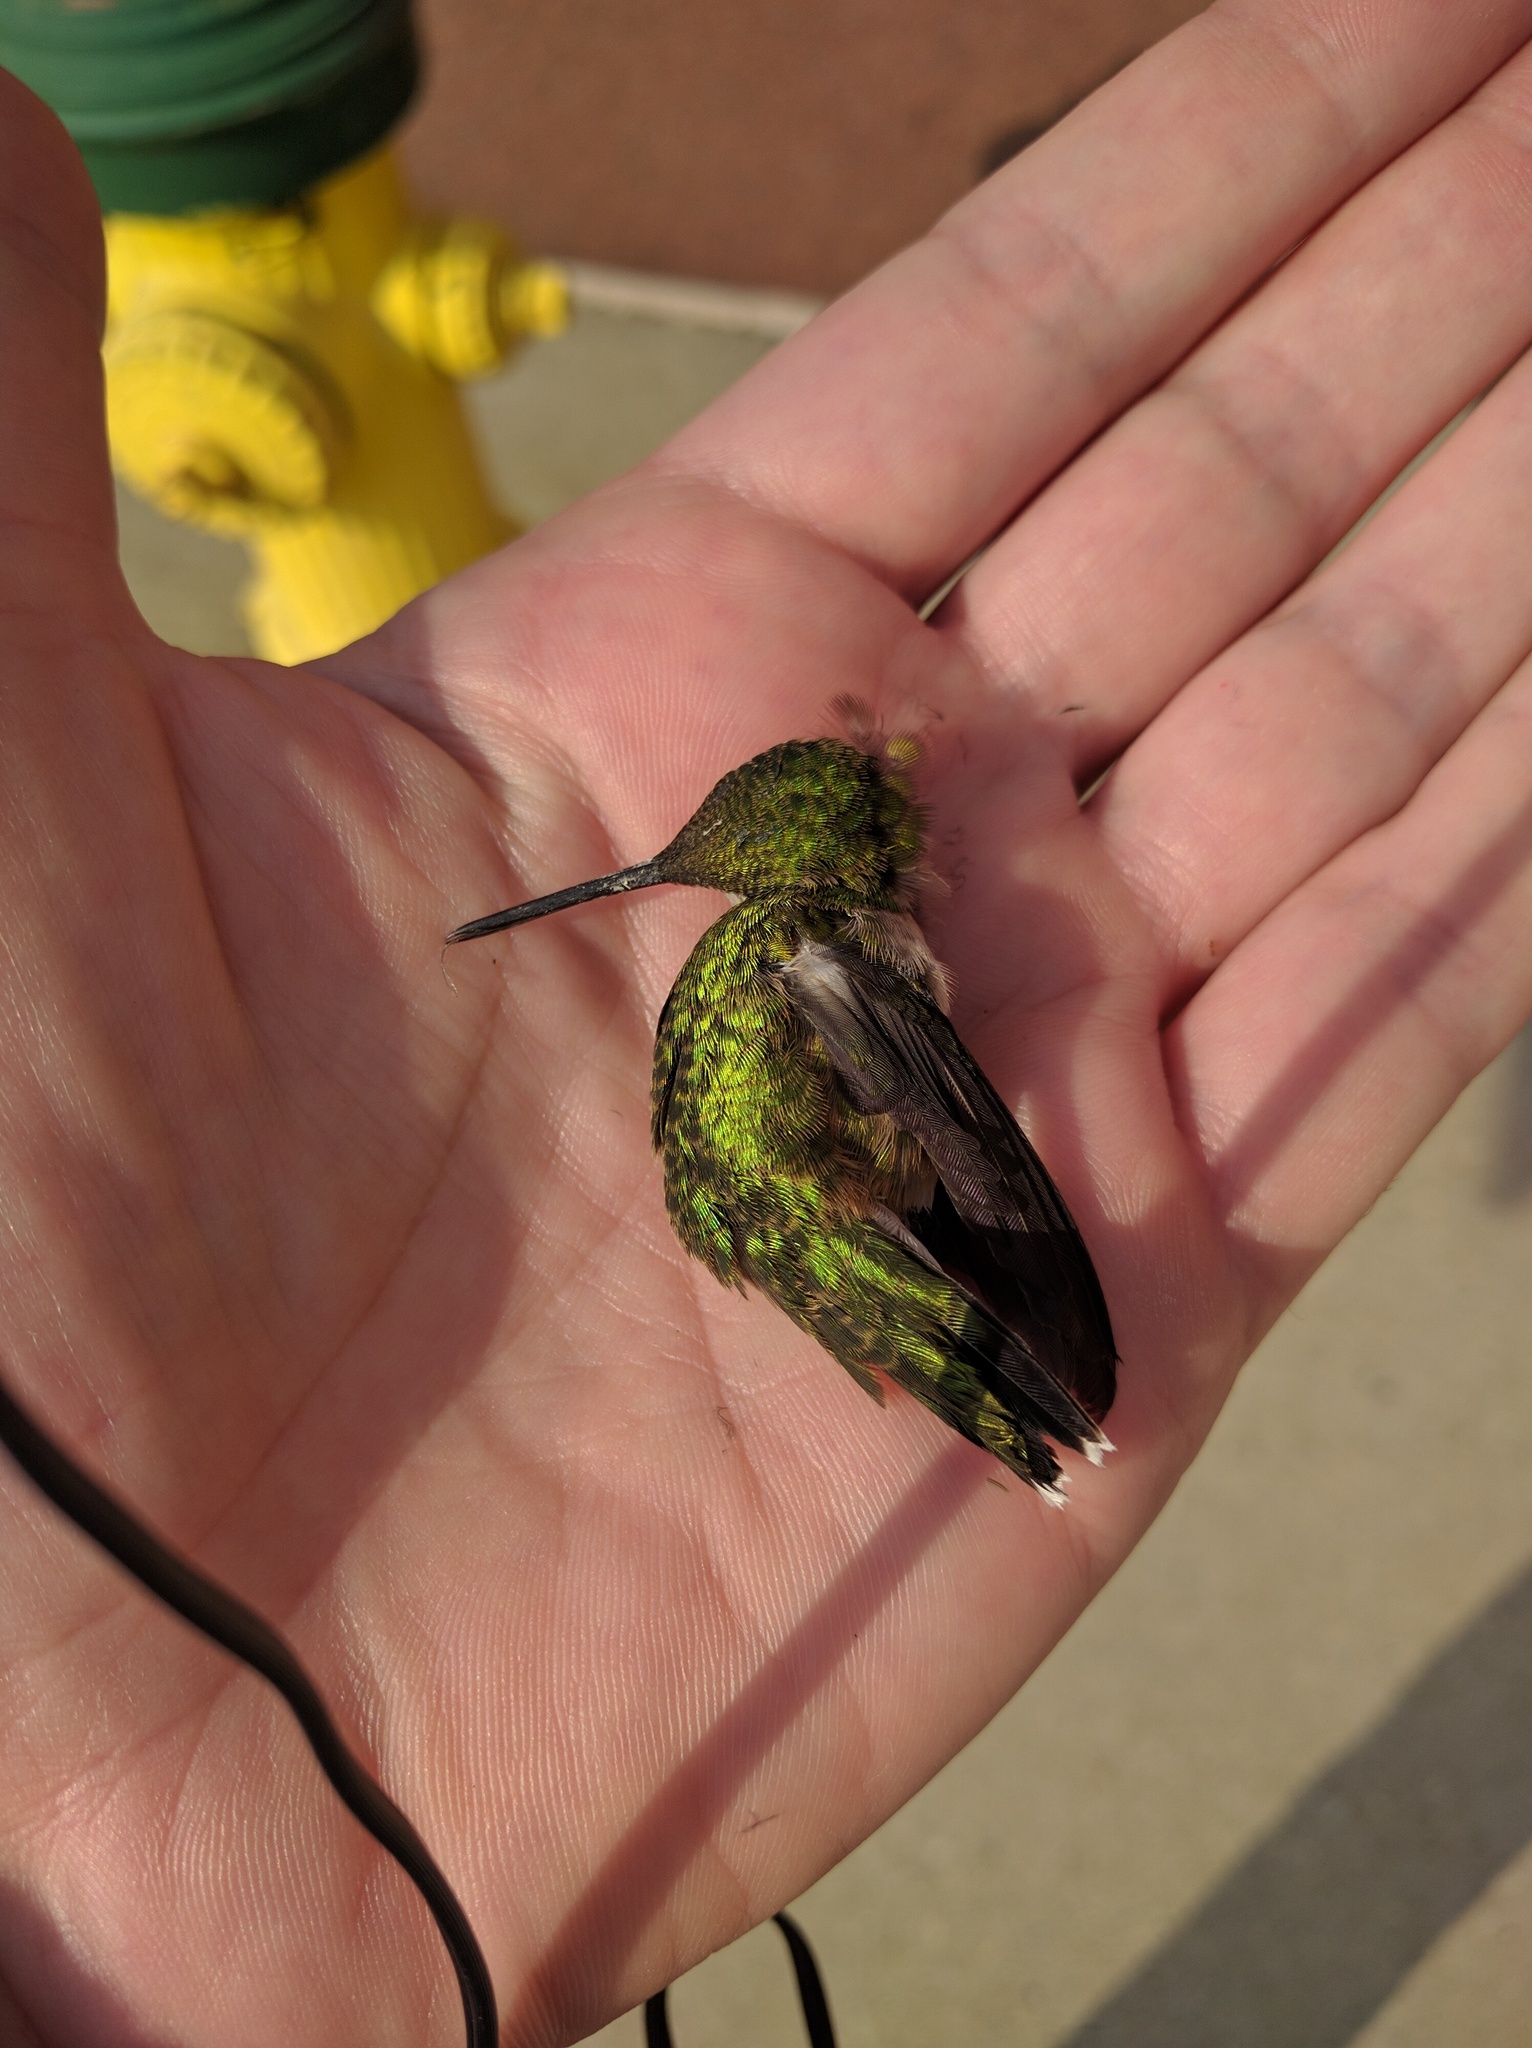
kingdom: Animalia
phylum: Chordata
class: Aves
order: Apodiformes
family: Trochilidae
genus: Archilochus
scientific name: Archilochus colubris
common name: Ruby-throated hummingbird
